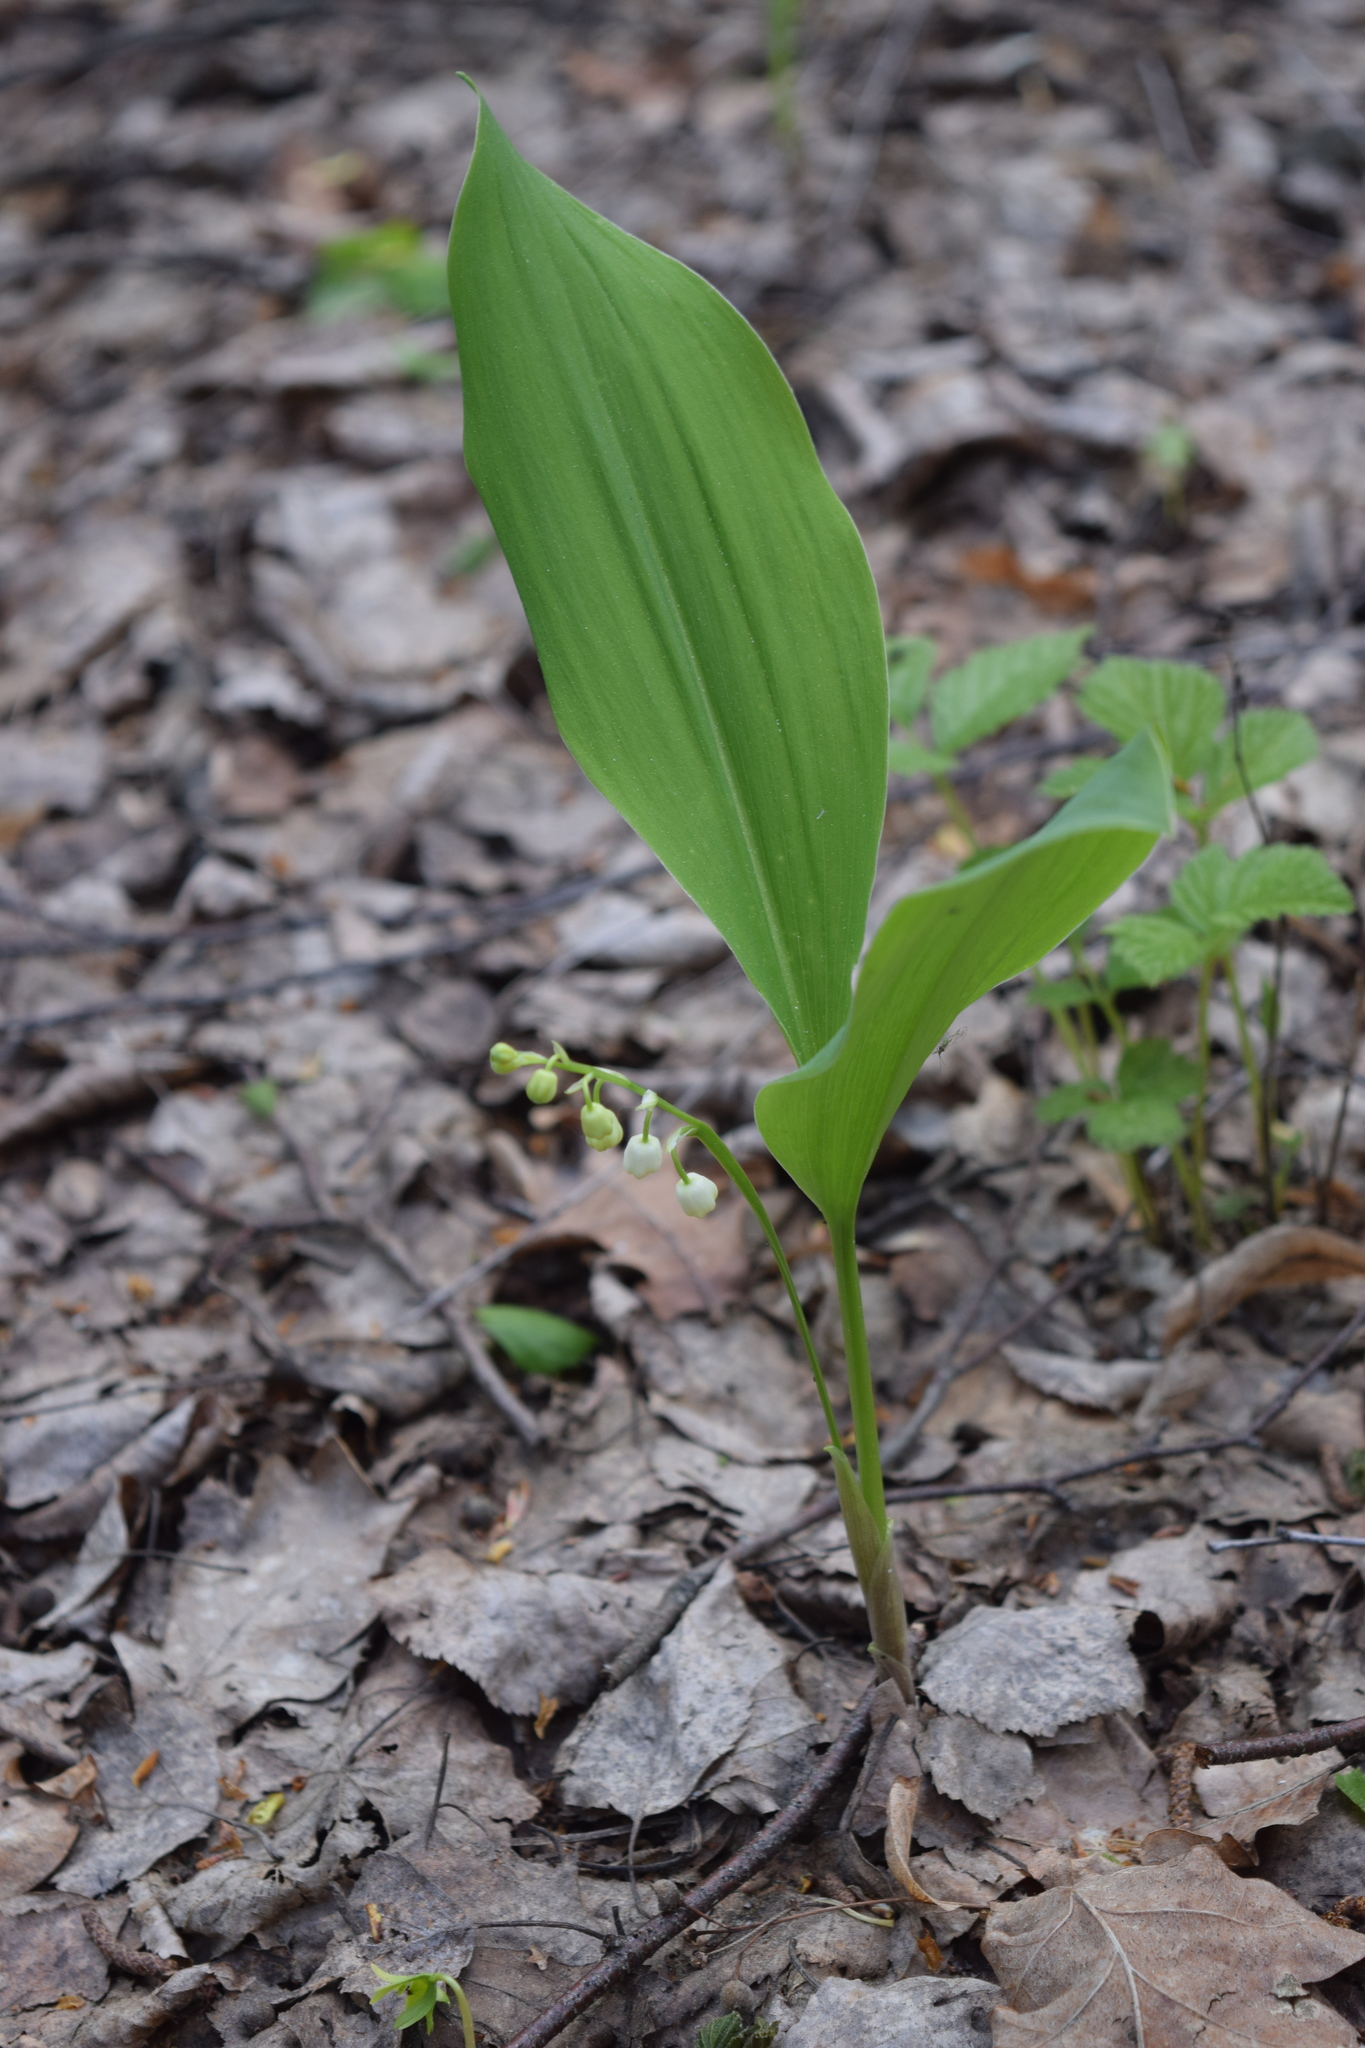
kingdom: Plantae
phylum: Tracheophyta
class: Liliopsida
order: Asparagales
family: Asparagaceae
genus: Convallaria
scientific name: Convallaria majalis
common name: Lily-of-the-valley
